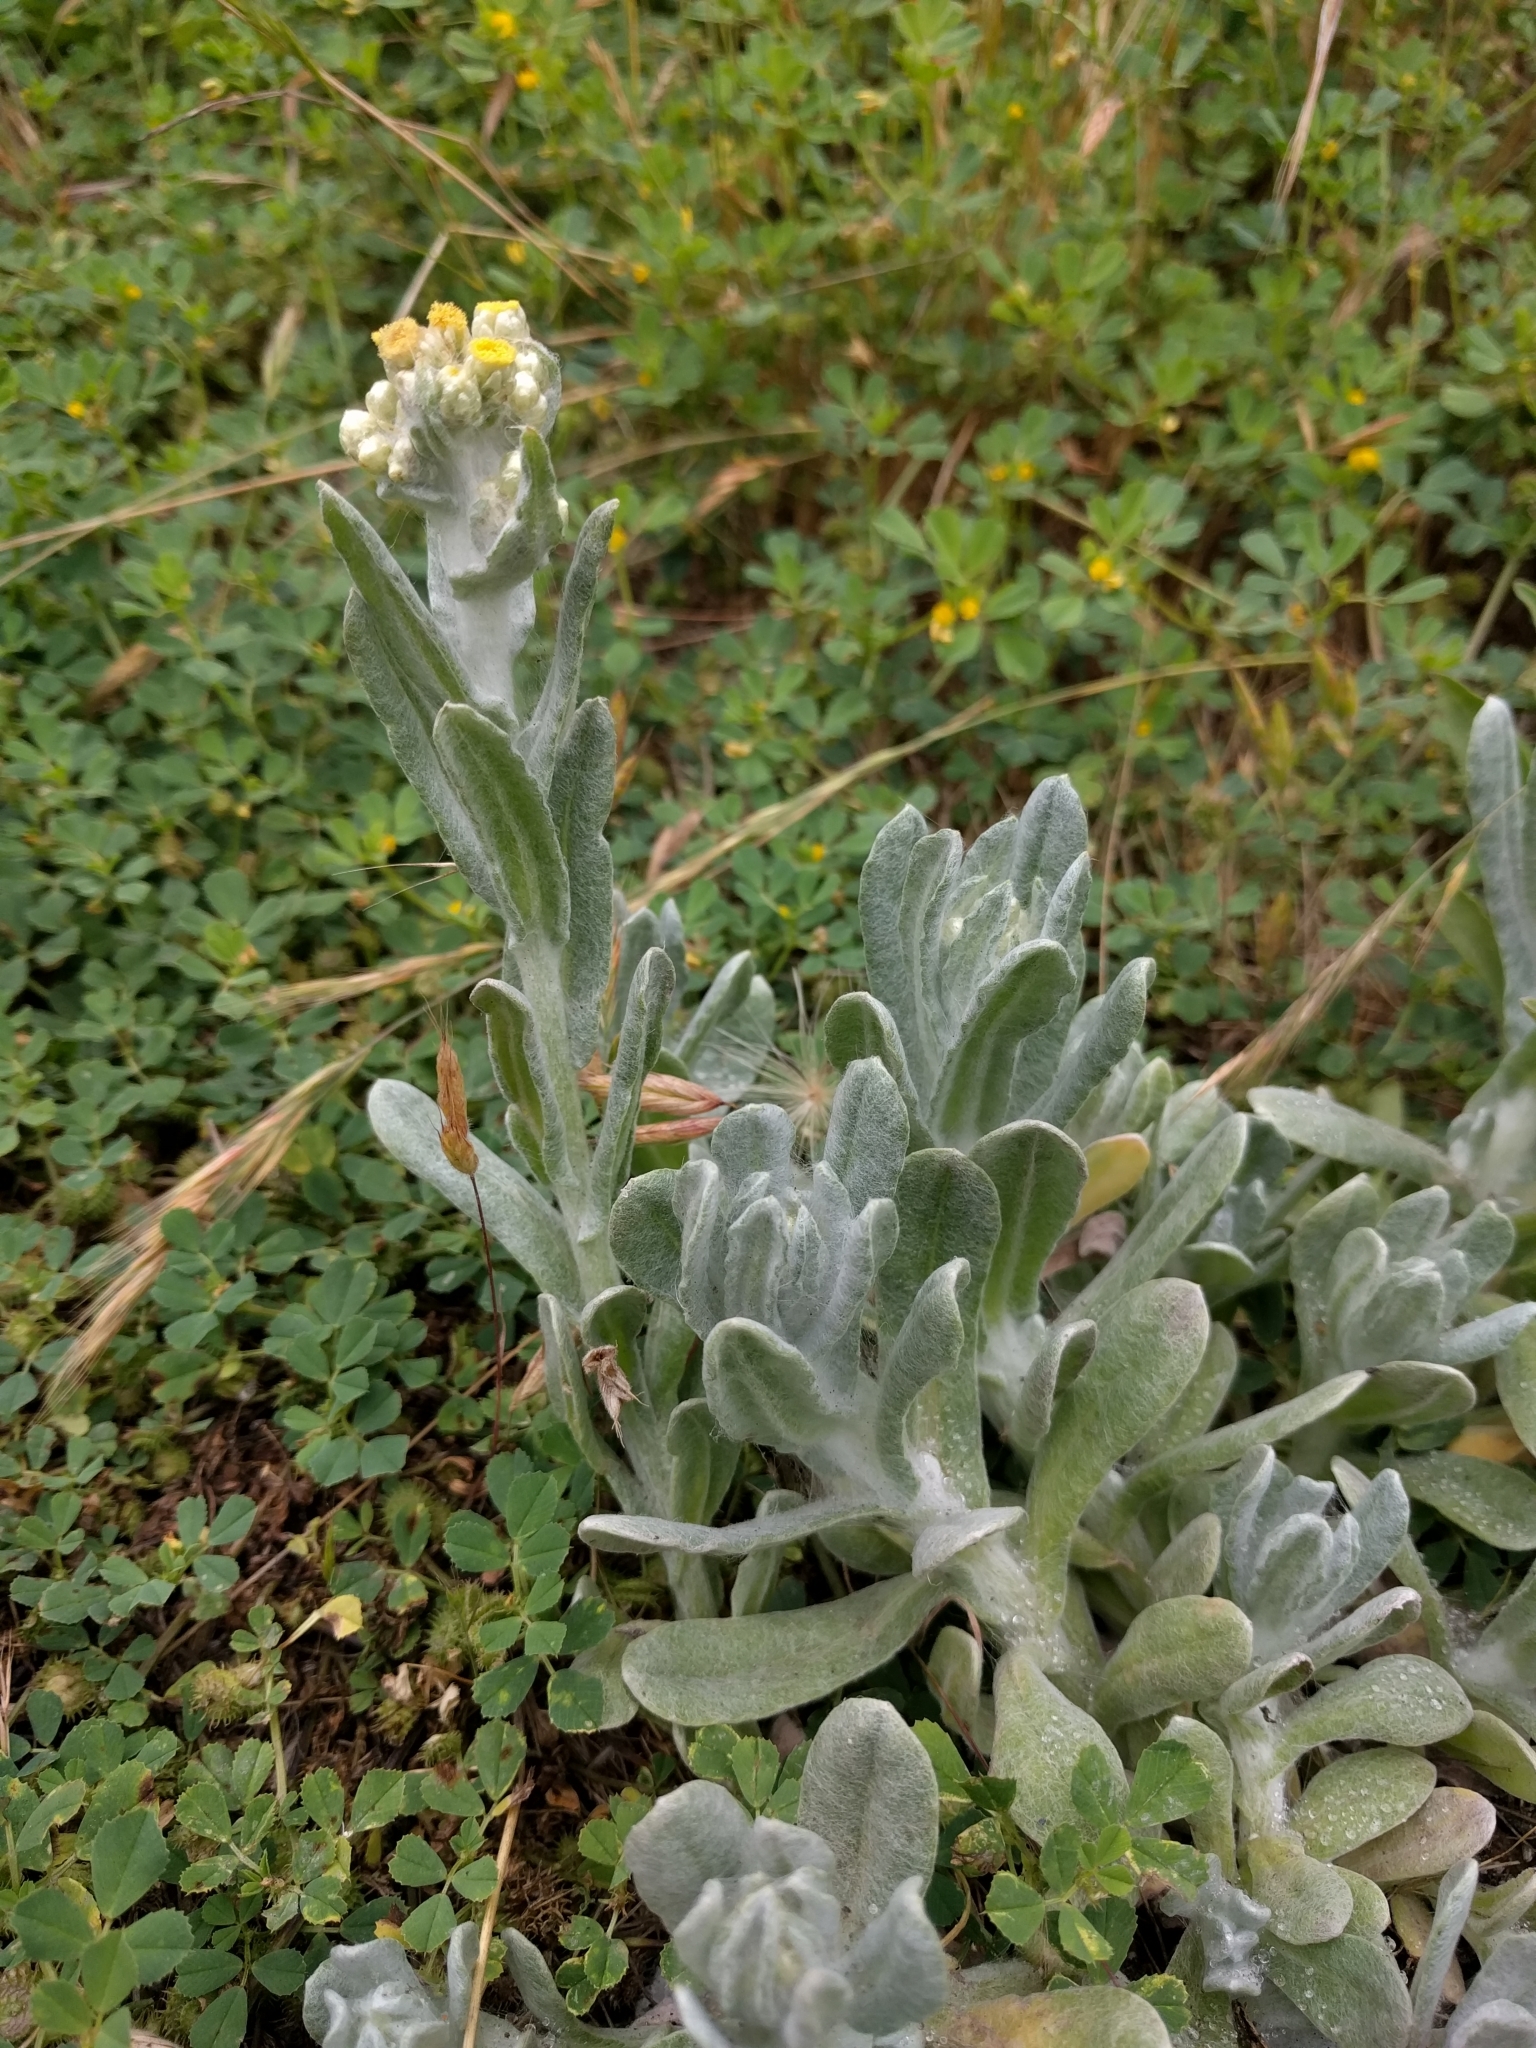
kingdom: Plantae
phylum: Tracheophyta
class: Magnoliopsida
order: Asterales
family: Asteraceae
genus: Pseudognaphalium
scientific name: Pseudognaphalium stramineum
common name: Cotton-batting-plant
